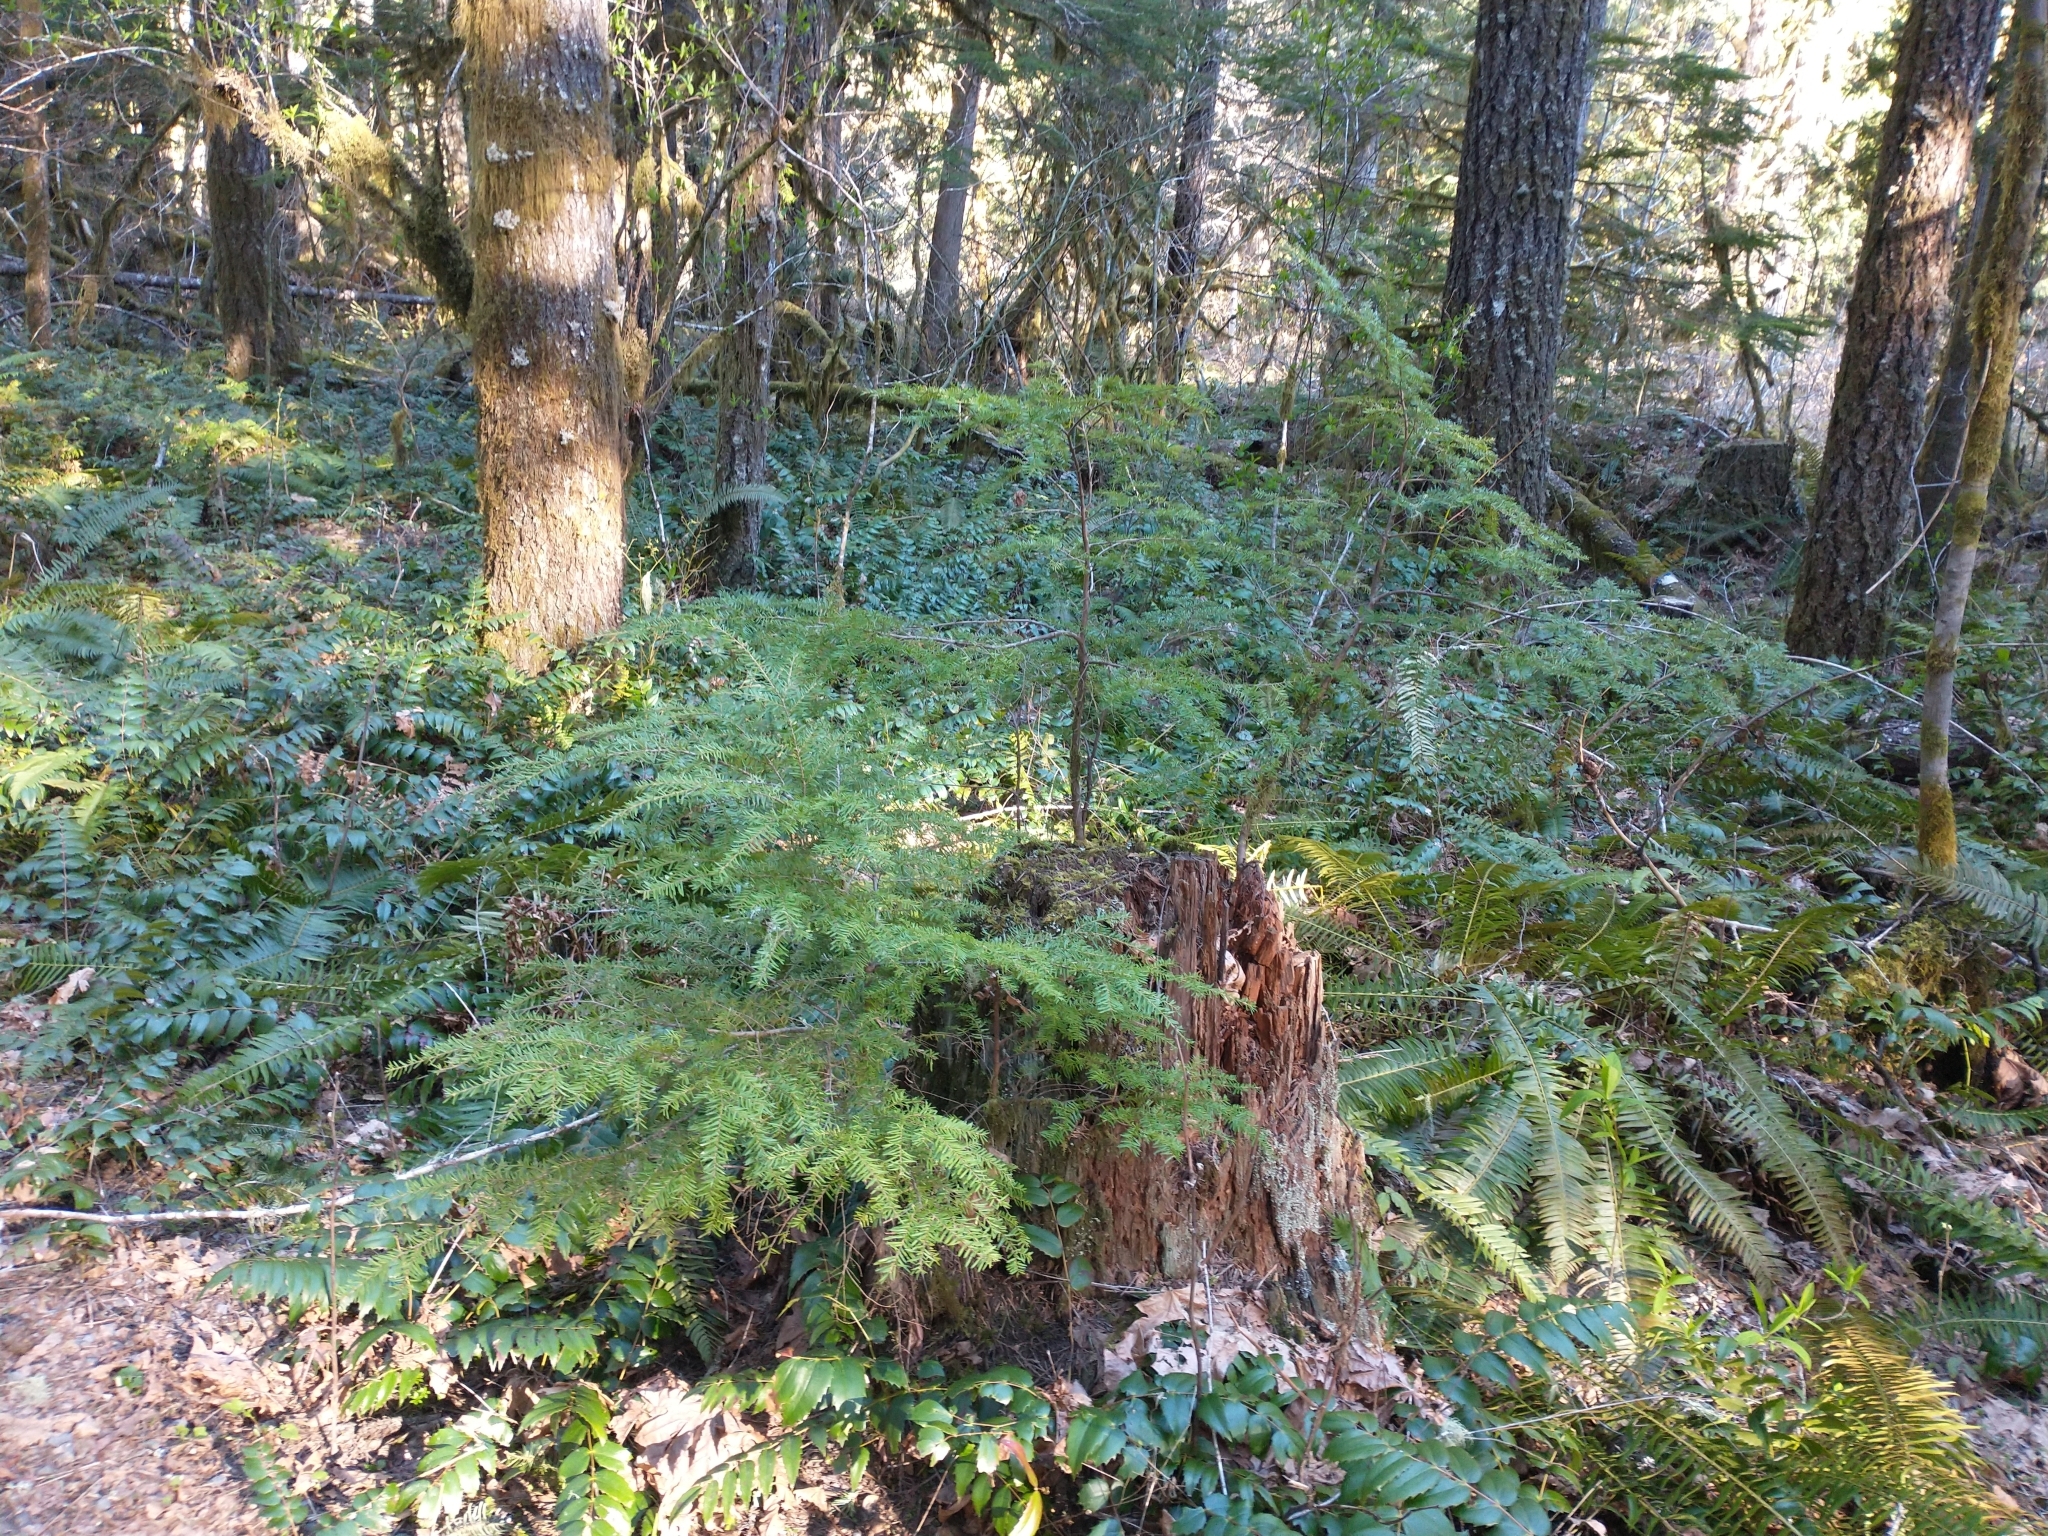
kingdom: Plantae
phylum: Tracheophyta
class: Pinopsida
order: Pinales
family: Pinaceae
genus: Tsuga
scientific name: Tsuga heterophylla
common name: Western hemlock
